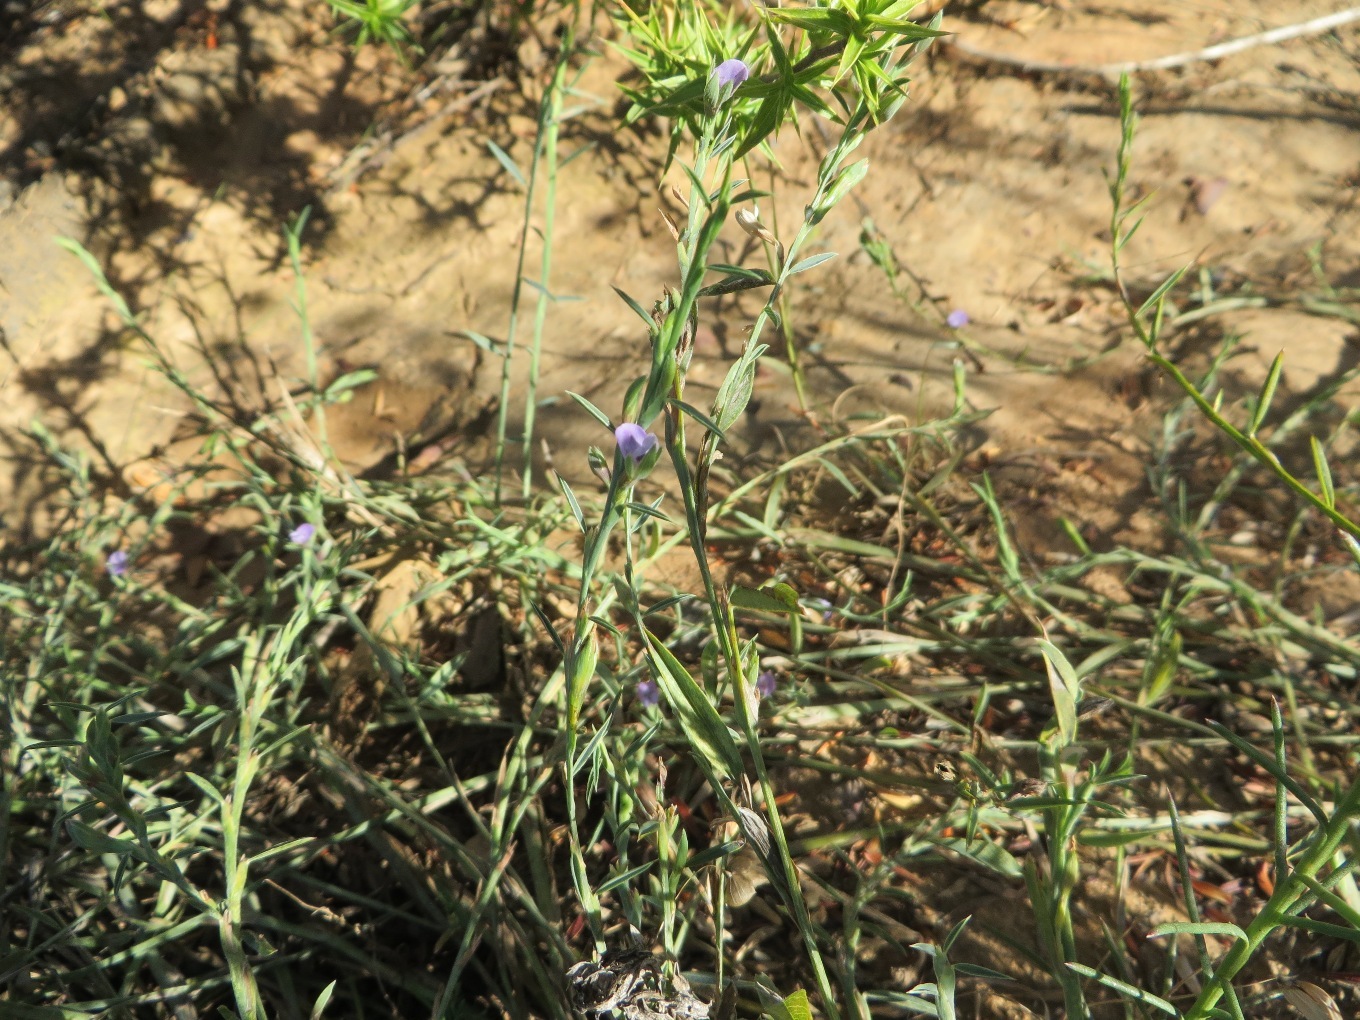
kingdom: Plantae
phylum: Tracheophyta
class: Magnoliopsida
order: Fabales
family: Fabaceae
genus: Psoralea
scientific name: Psoralea alata
